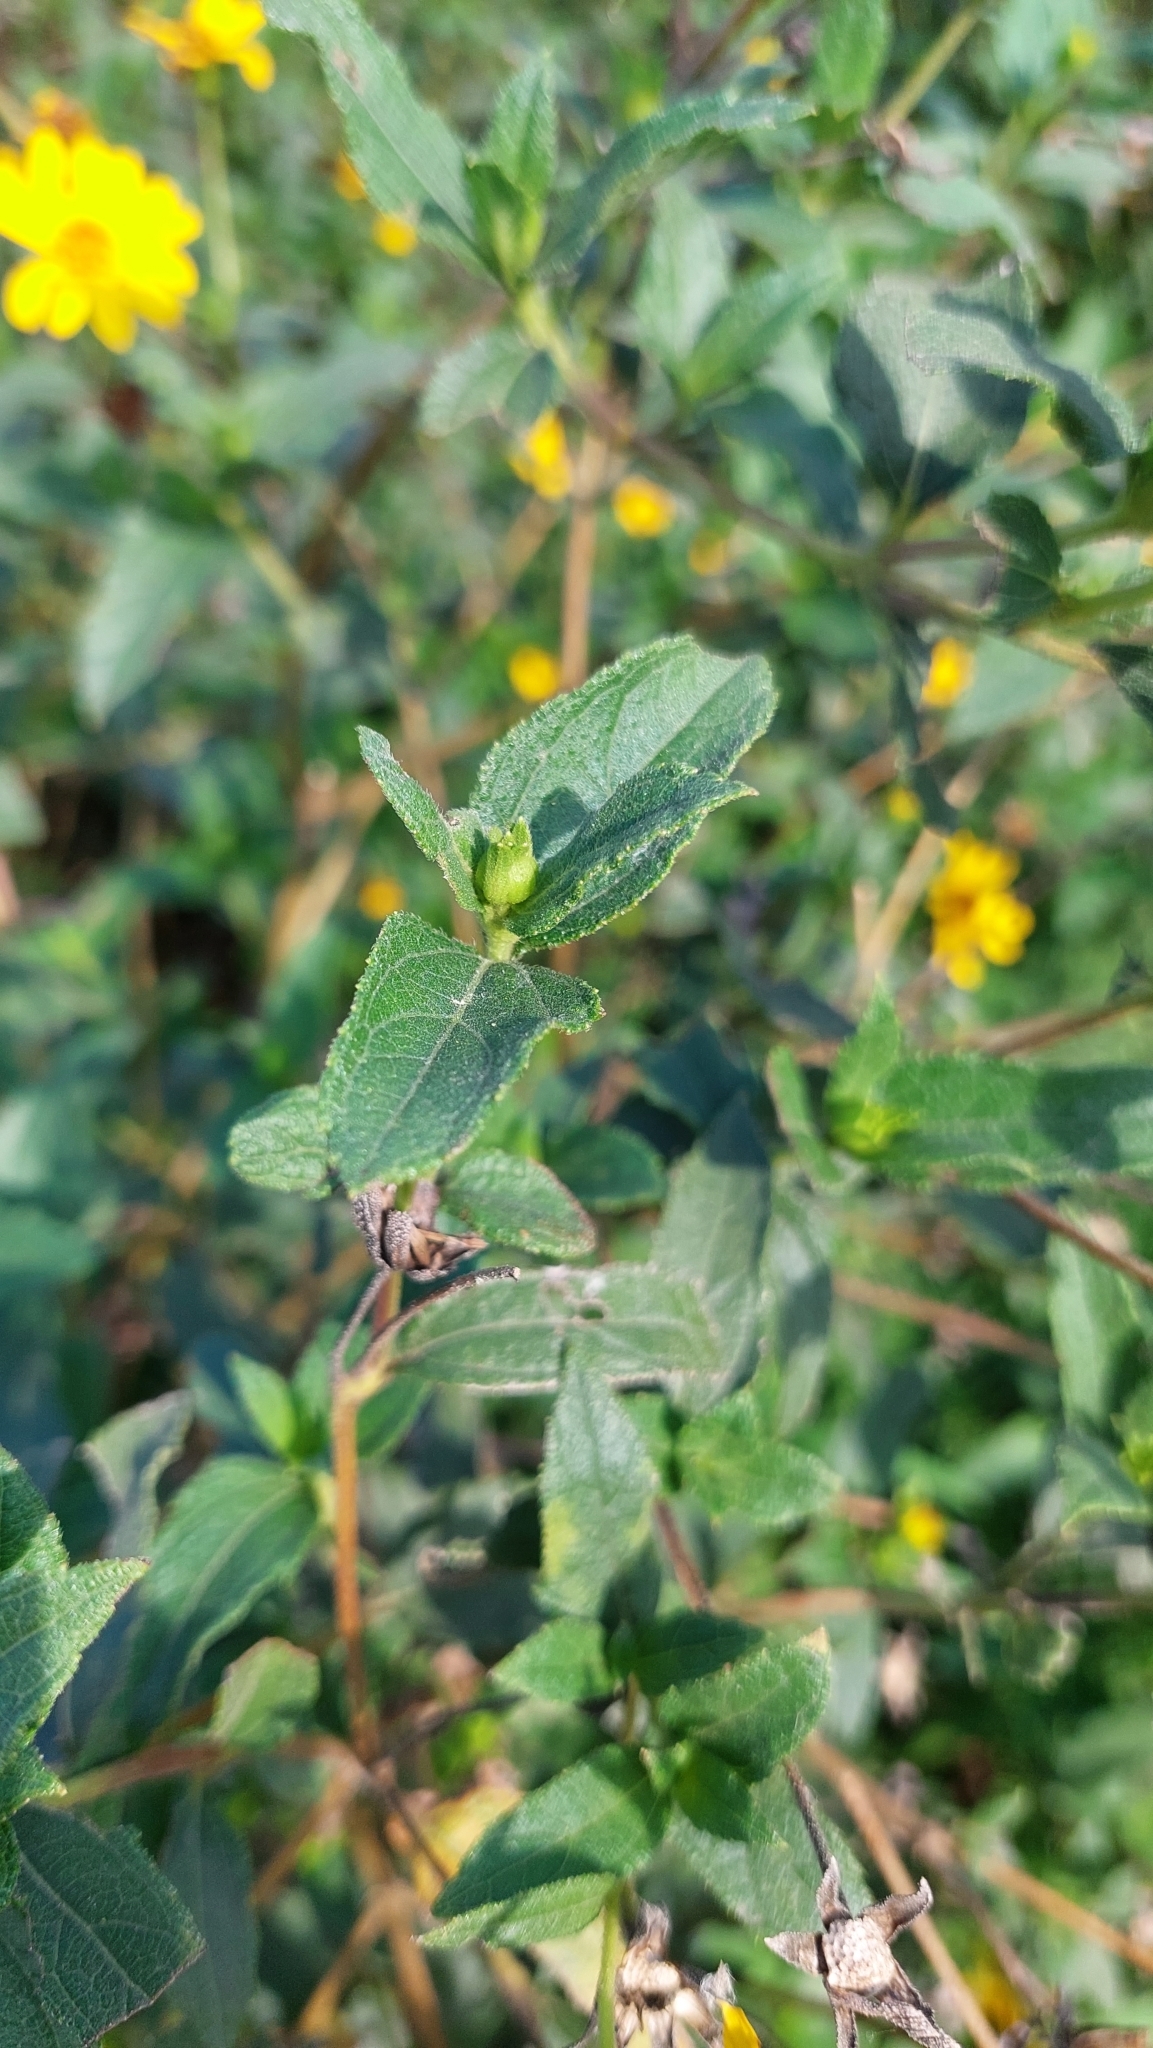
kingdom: Plantae
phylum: Tracheophyta
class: Magnoliopsida
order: Asterales
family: Asteraceae
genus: Wedelia
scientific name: Wedelia silphioides
